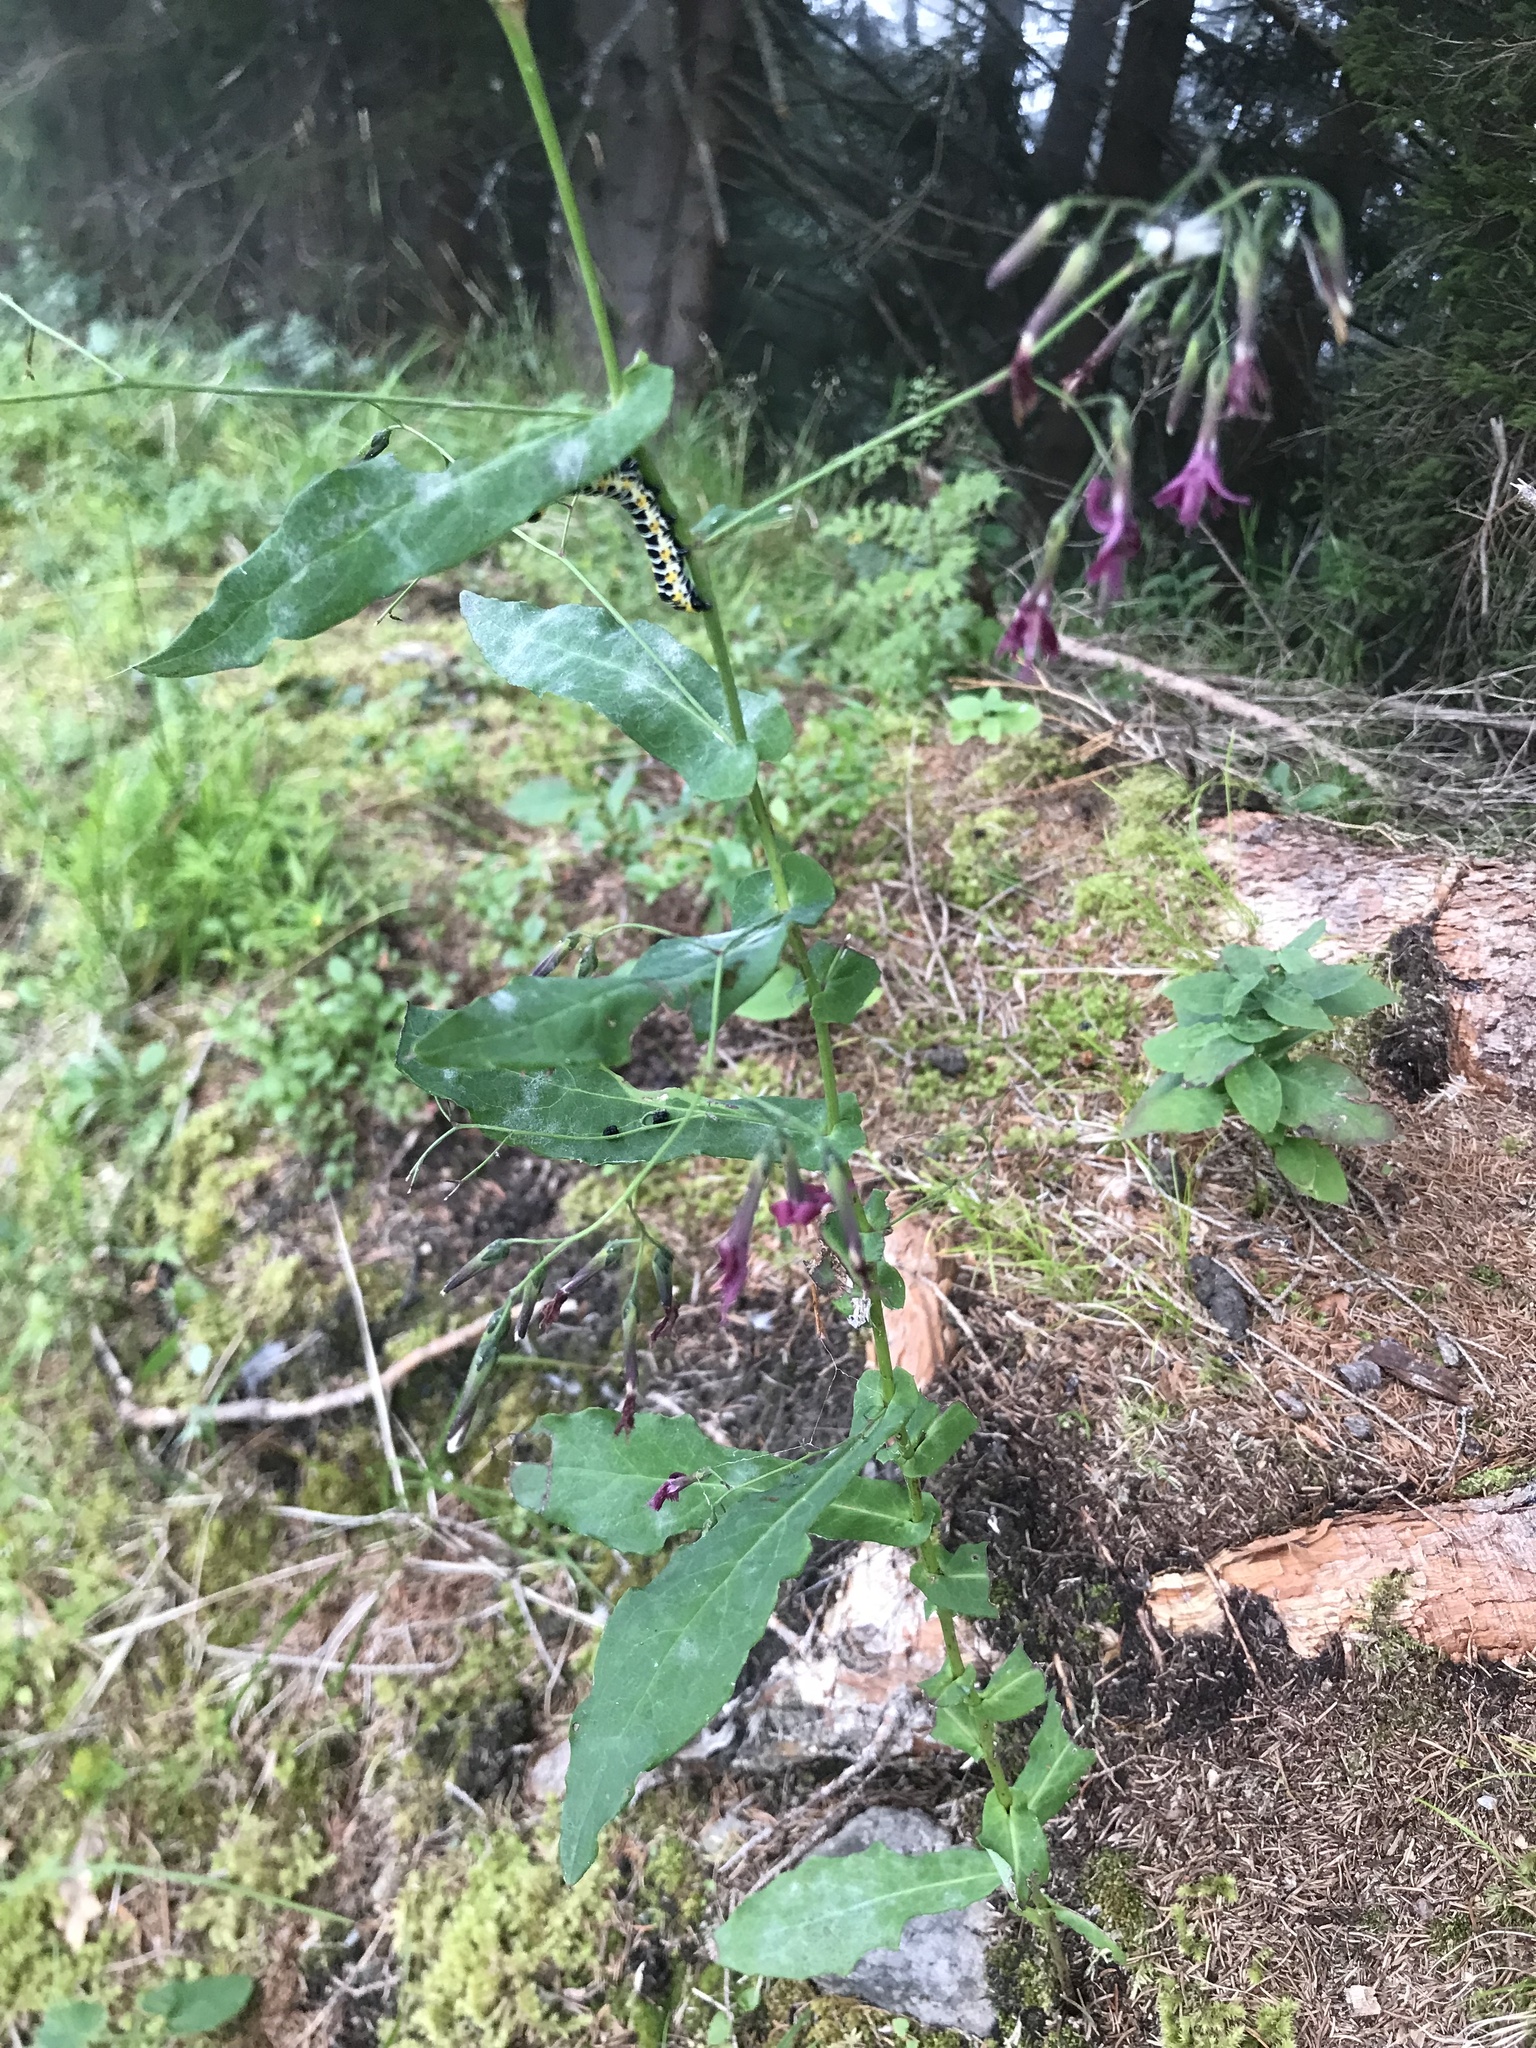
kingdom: Animalia
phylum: Arthropoda
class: Insecta
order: Lepidoptera
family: Noctuidae
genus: Cucullia
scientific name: Cucullia lactucae
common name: Lettuce shark
